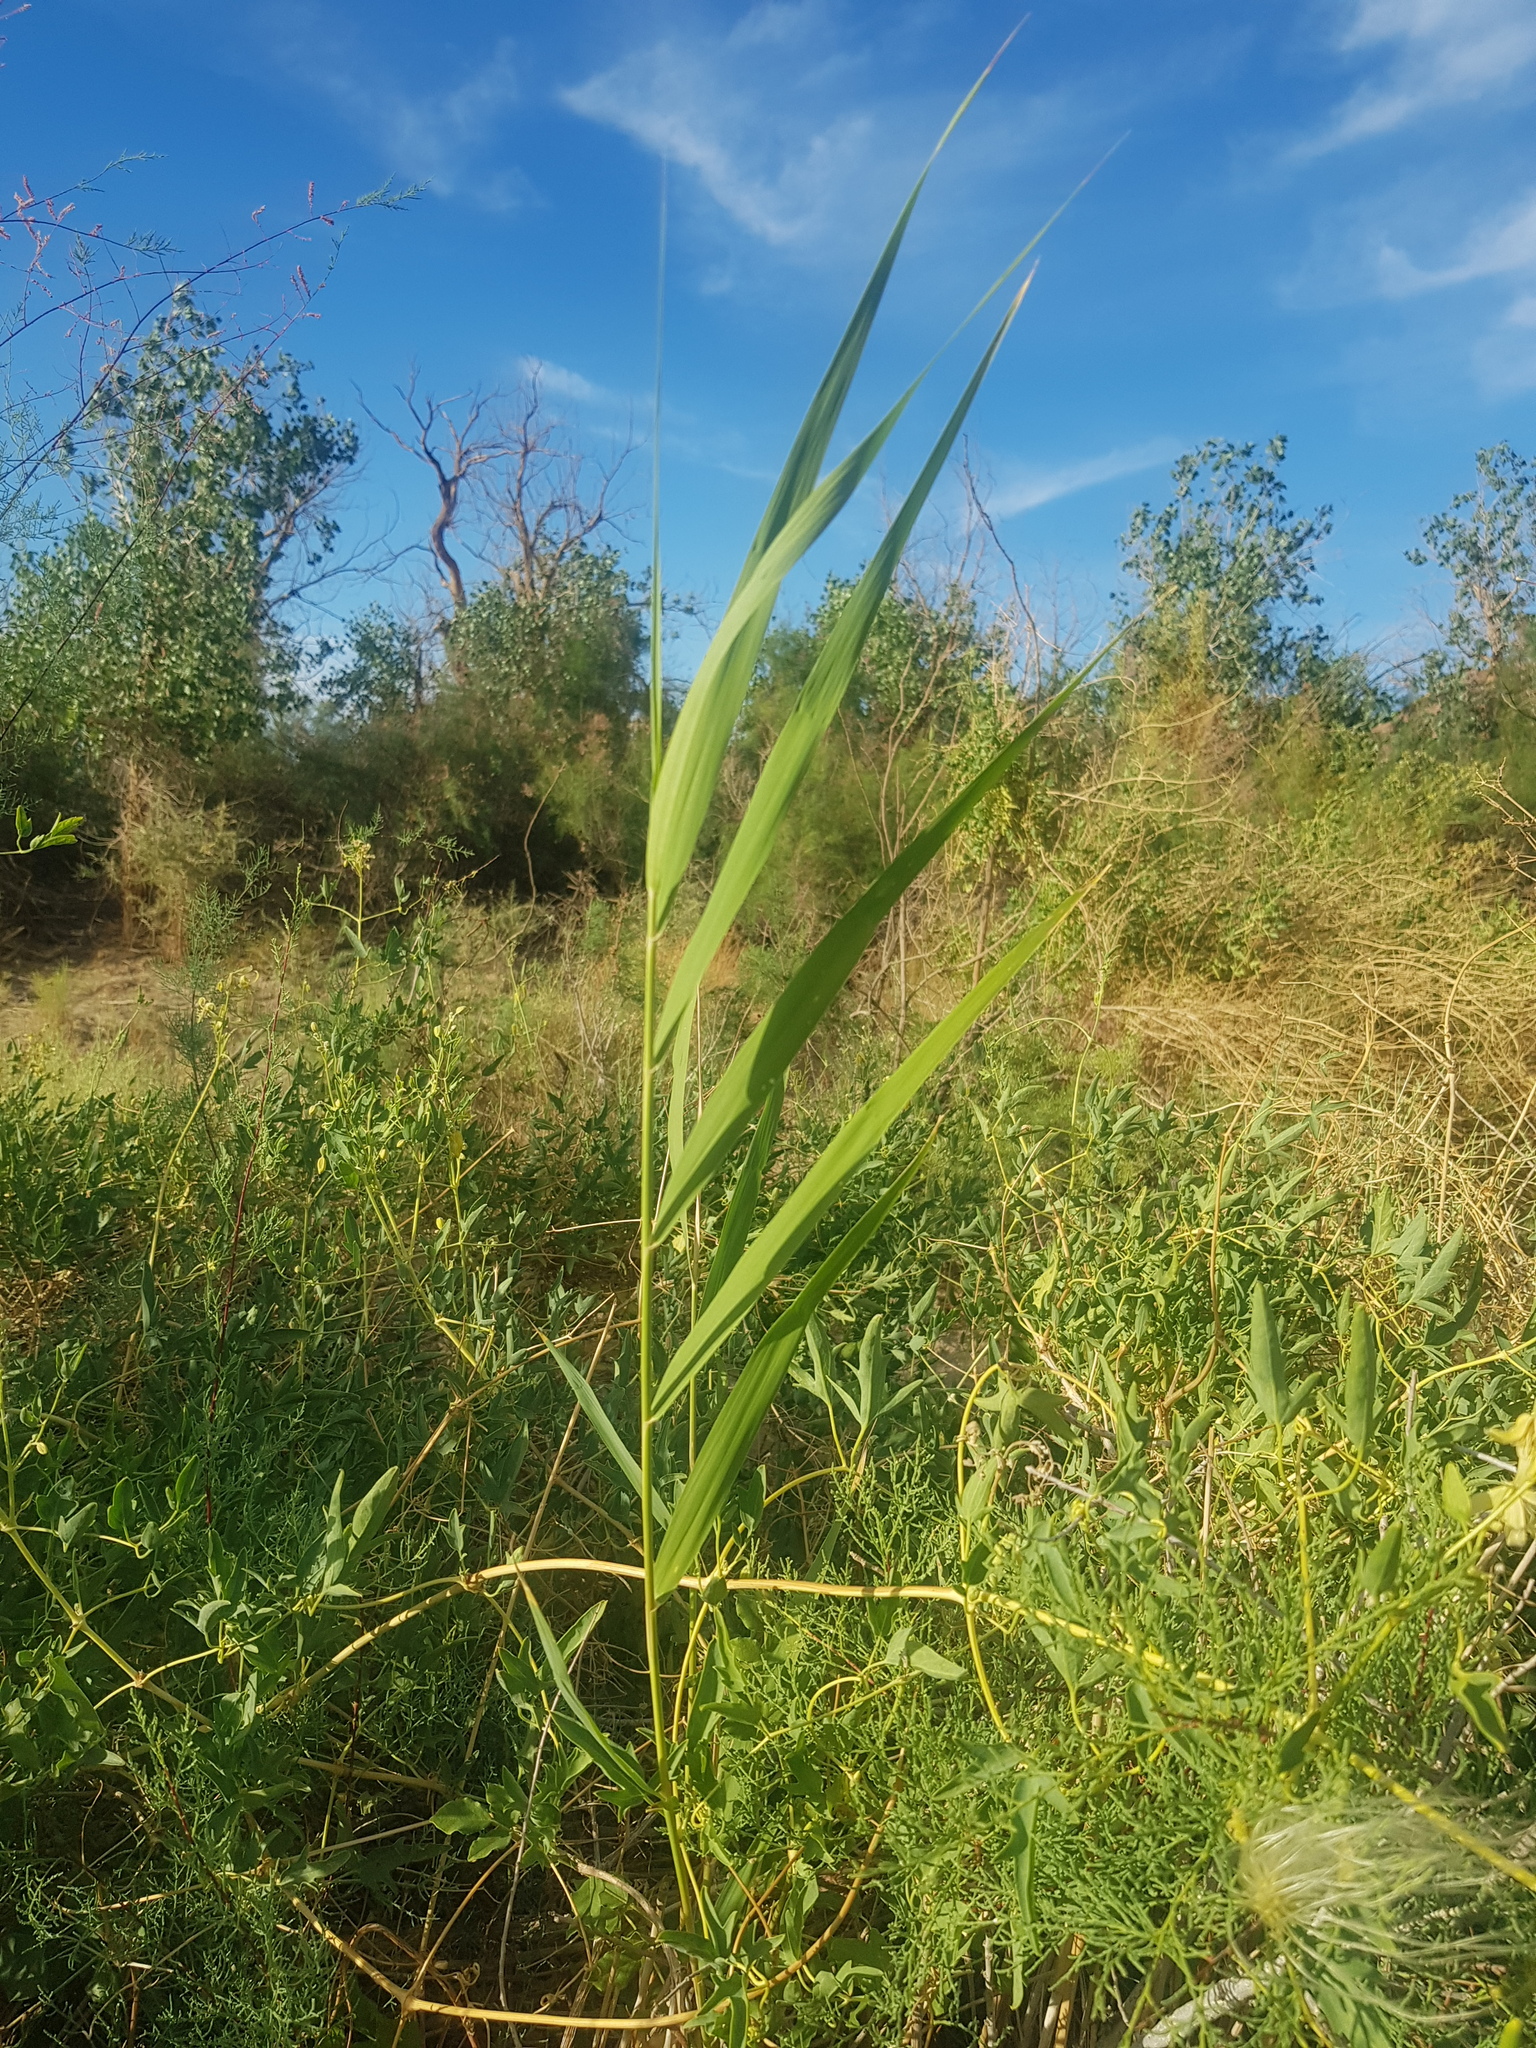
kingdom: Plantae
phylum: Tracheophyta
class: Liliopsida
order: Poales
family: Poaceae
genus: Phragmites
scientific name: Phragmites australis
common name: Common reed
